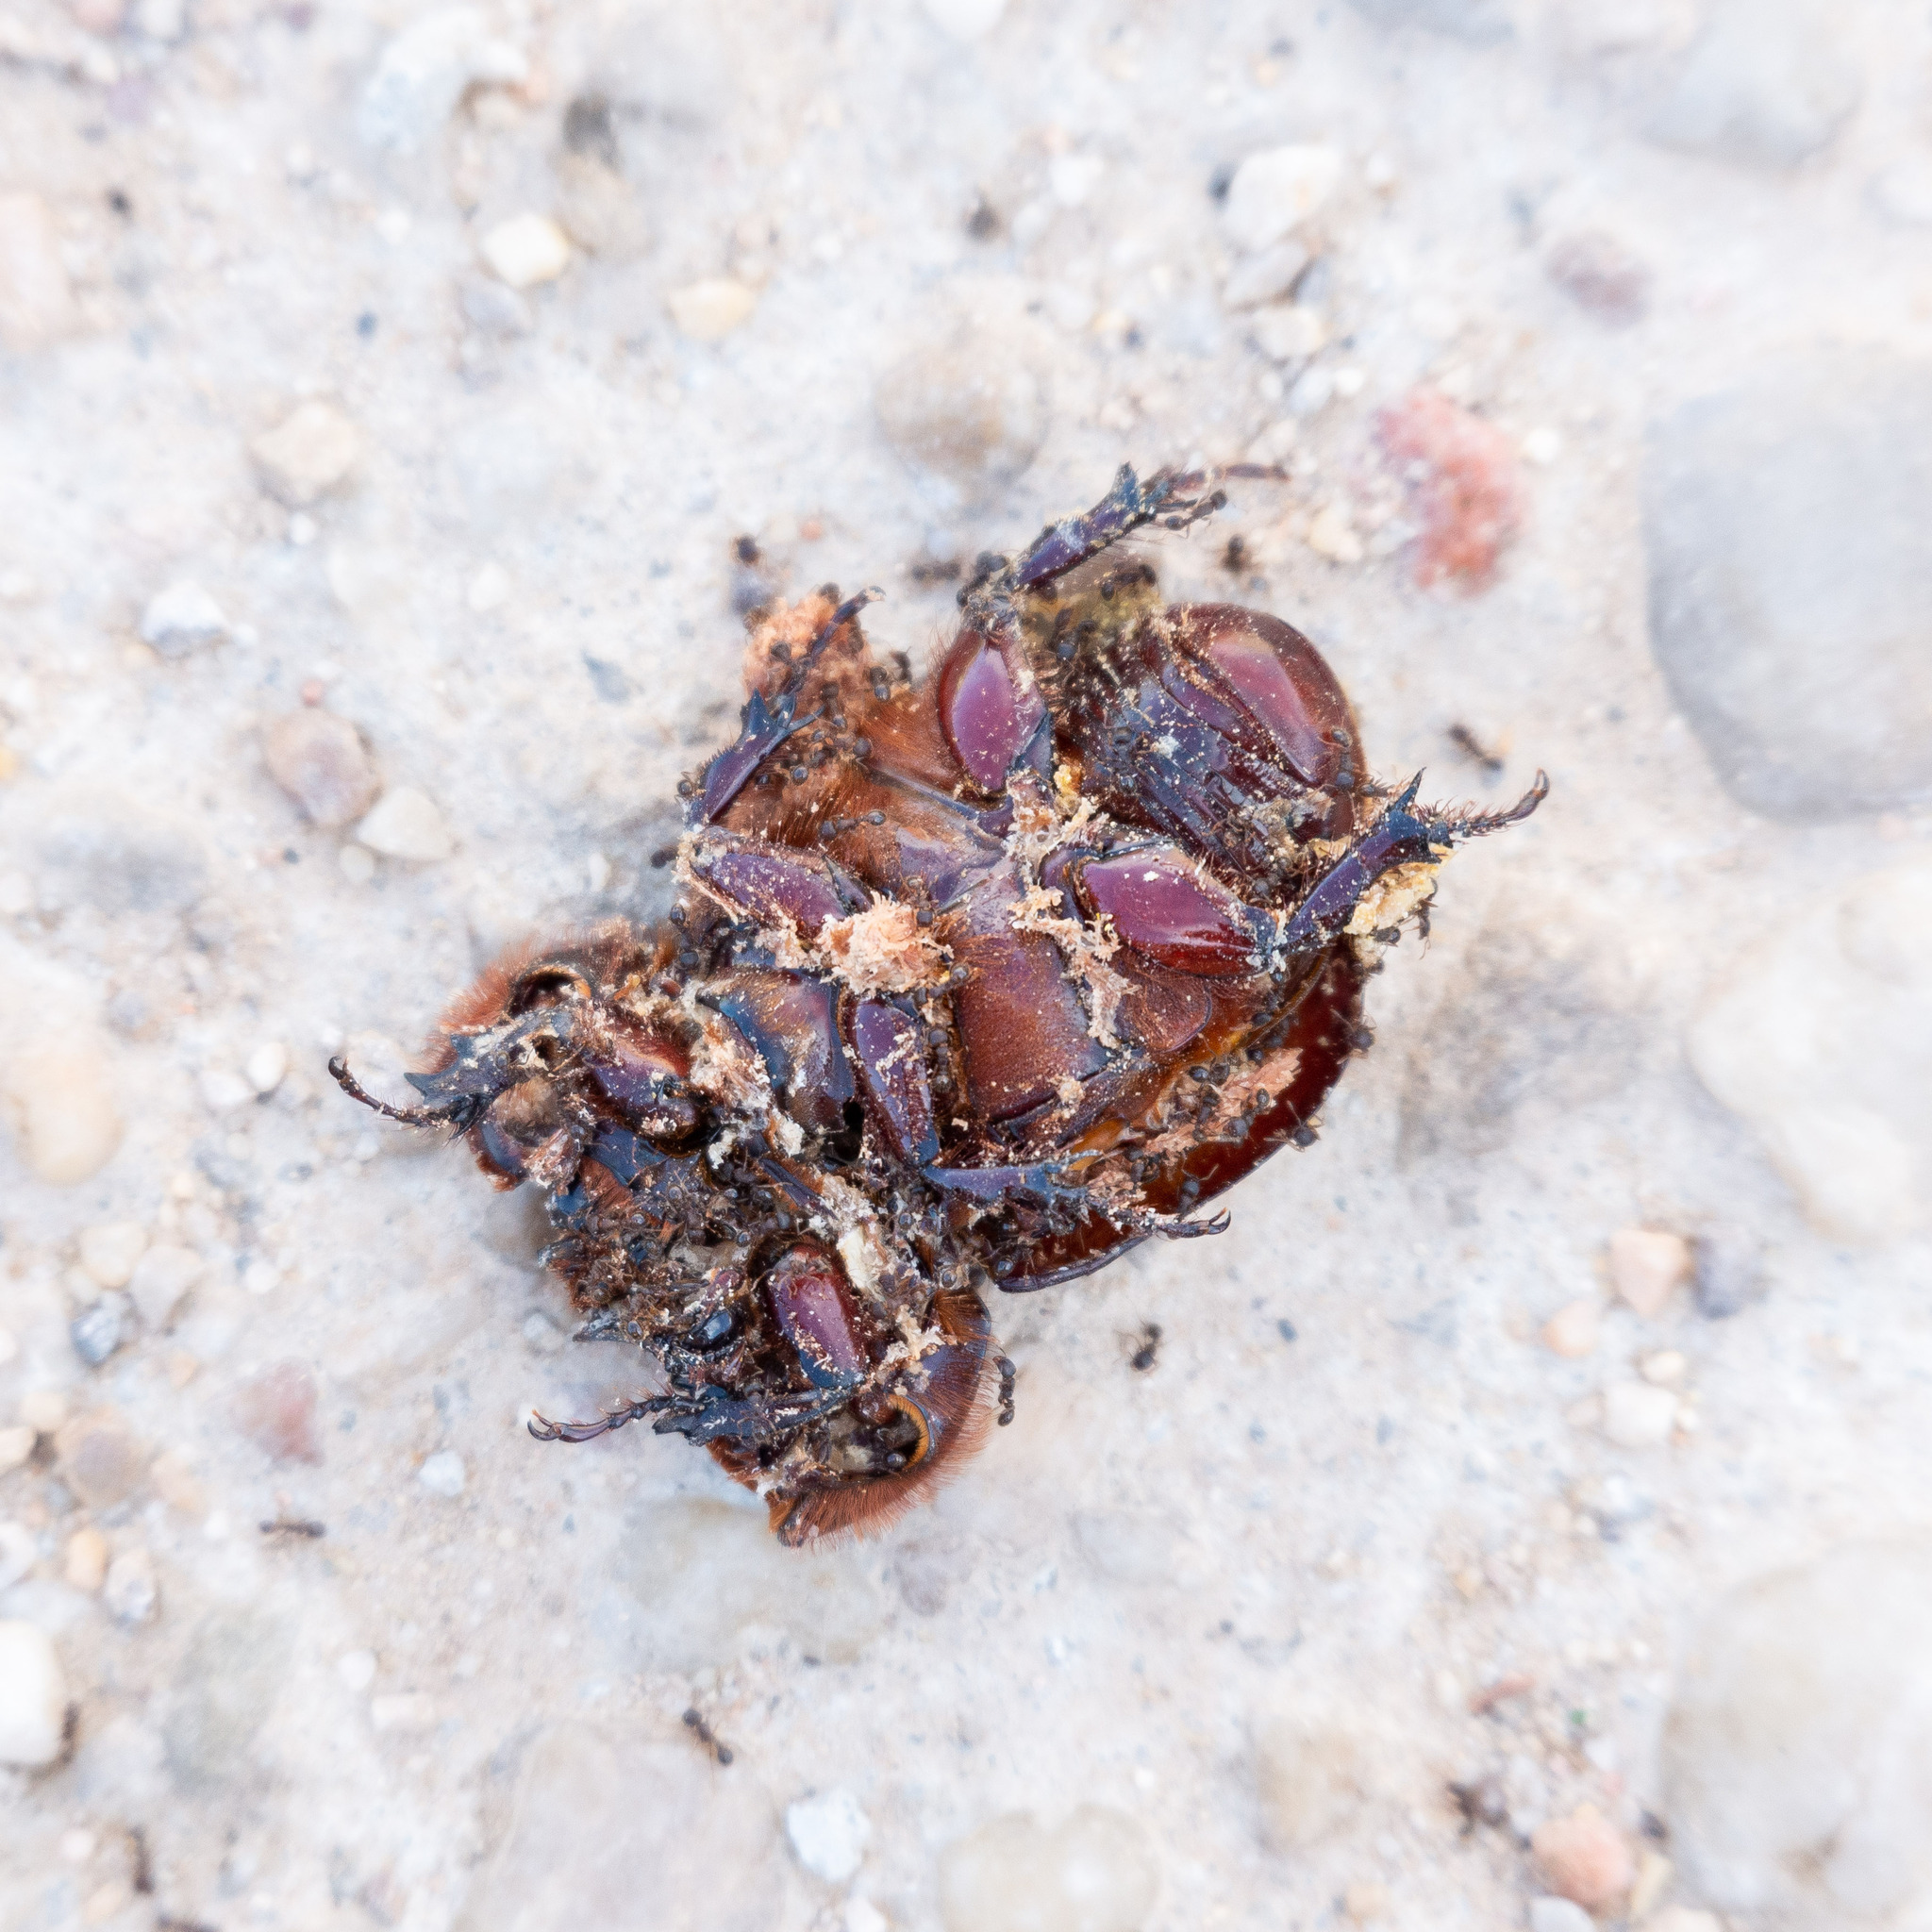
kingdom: Animalia
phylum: Arthropoda
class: Insecta
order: Coleoptera
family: Scarabaeidae
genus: Oryctes
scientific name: Oryctes nasicornis
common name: European rhinoceros beetle
